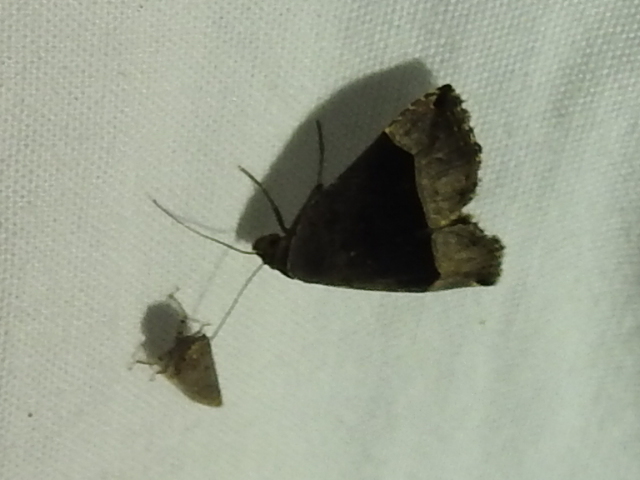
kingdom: Animalia
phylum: Arthropoda
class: Insecta
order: Lepidoptera
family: Noctuidae
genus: Abacena
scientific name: Abacena mundula
